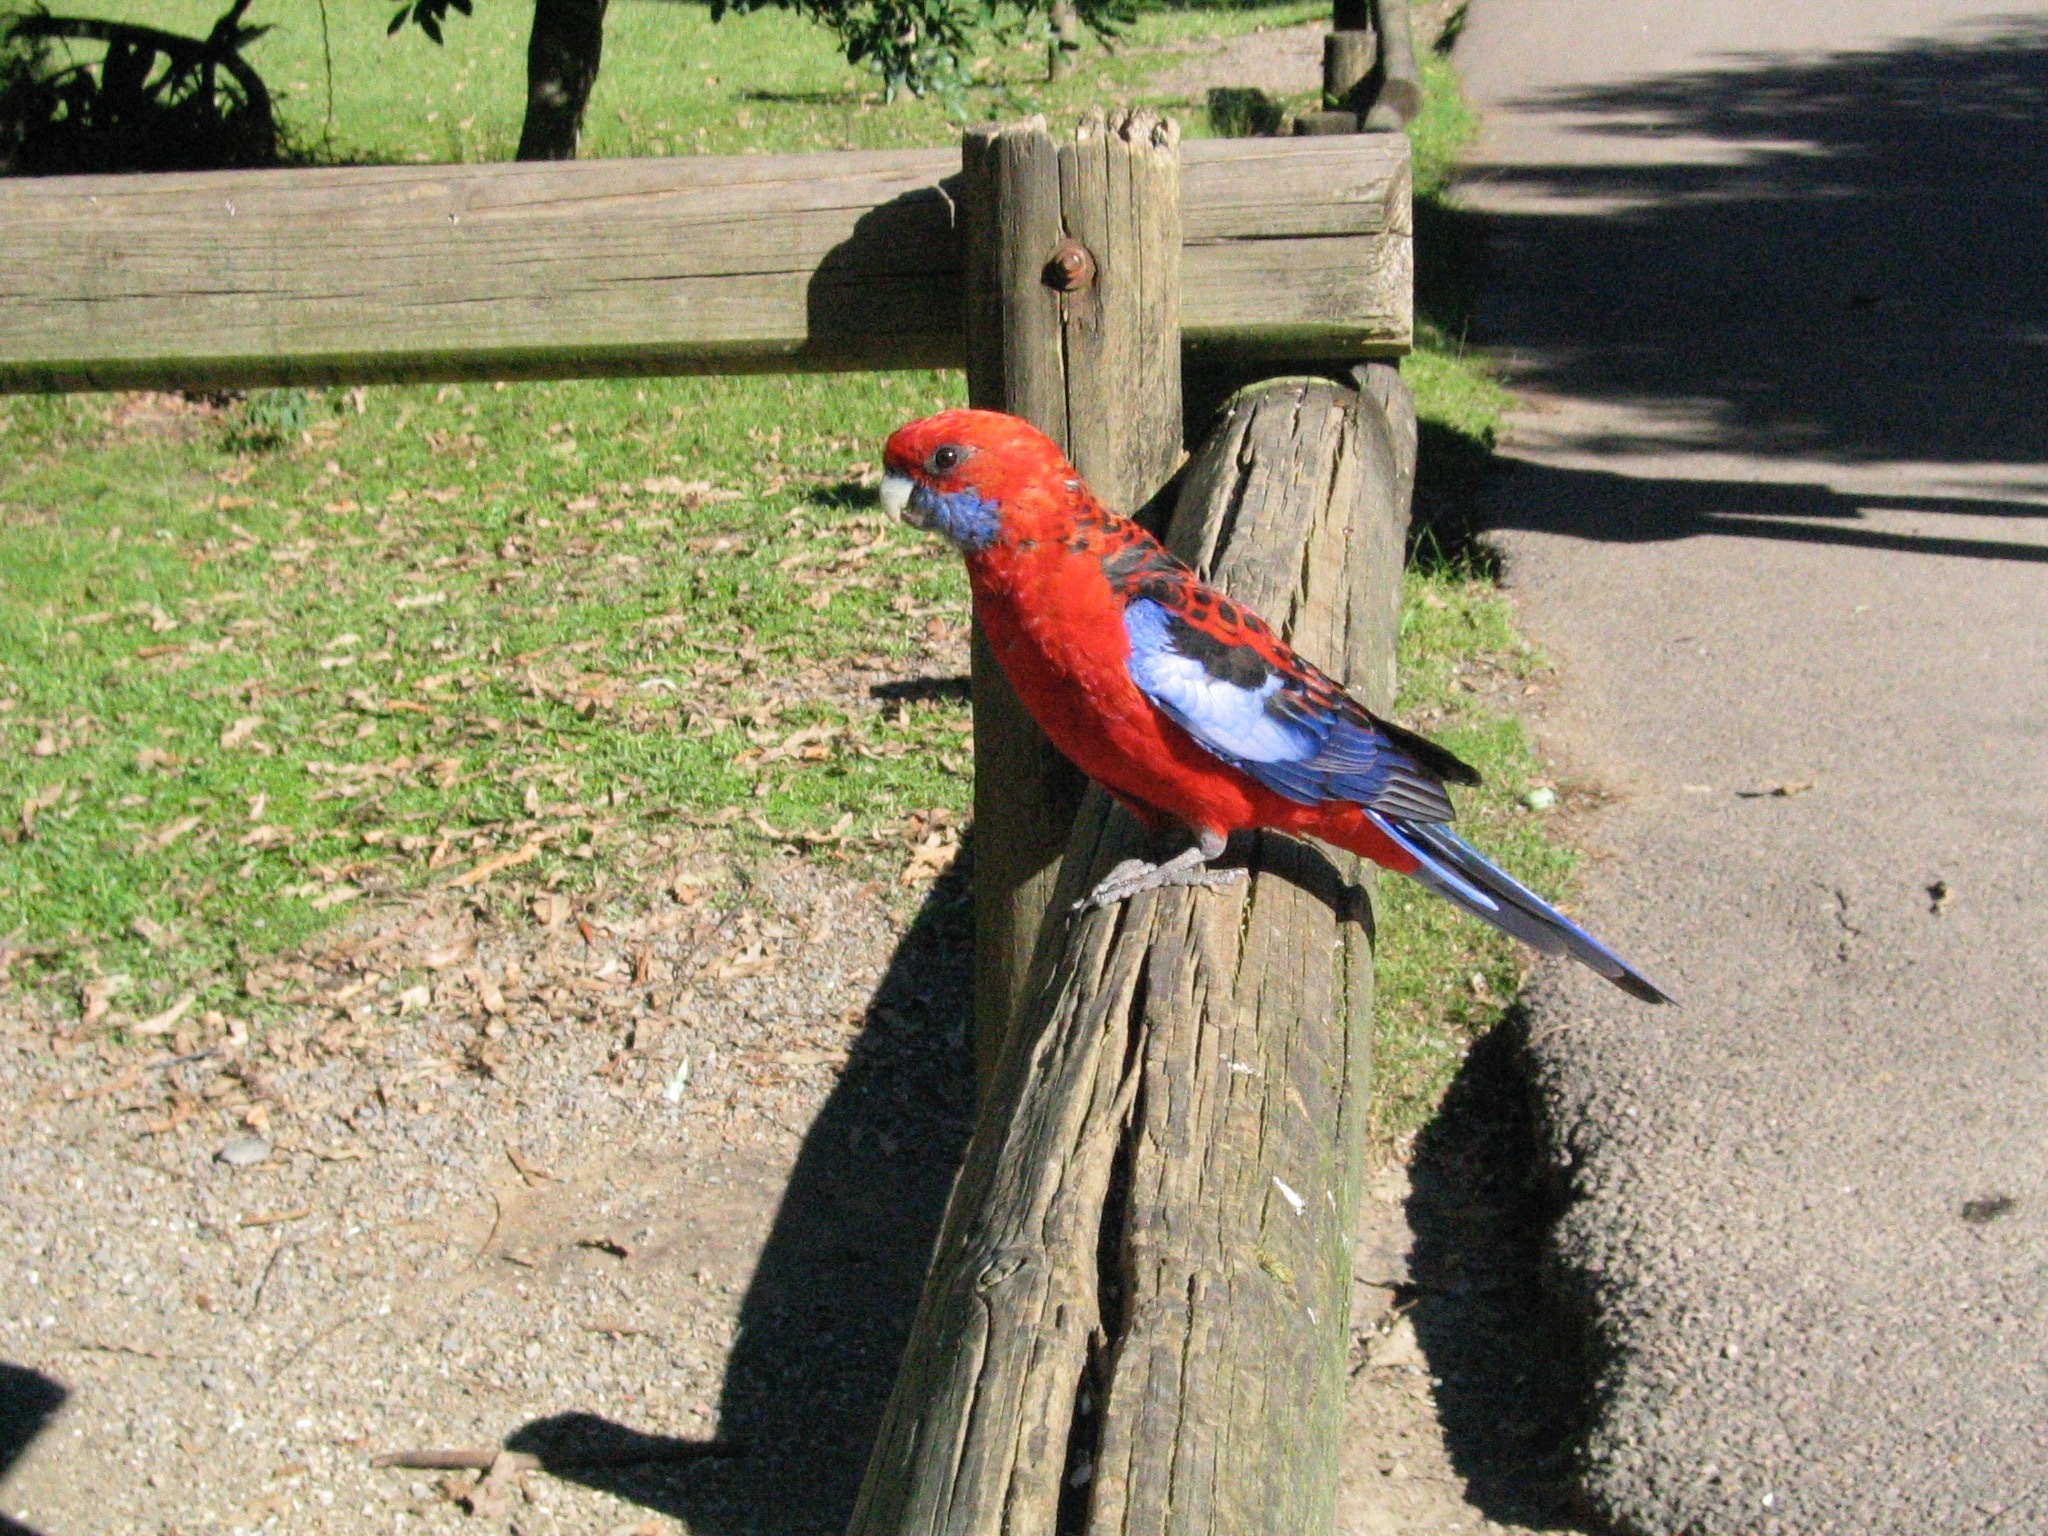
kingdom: Animalia
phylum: Chordata
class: Aves
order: Psittaciformes
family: Psittacidae
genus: Platycercus
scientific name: Platycercus elegans
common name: Crimson rosella
